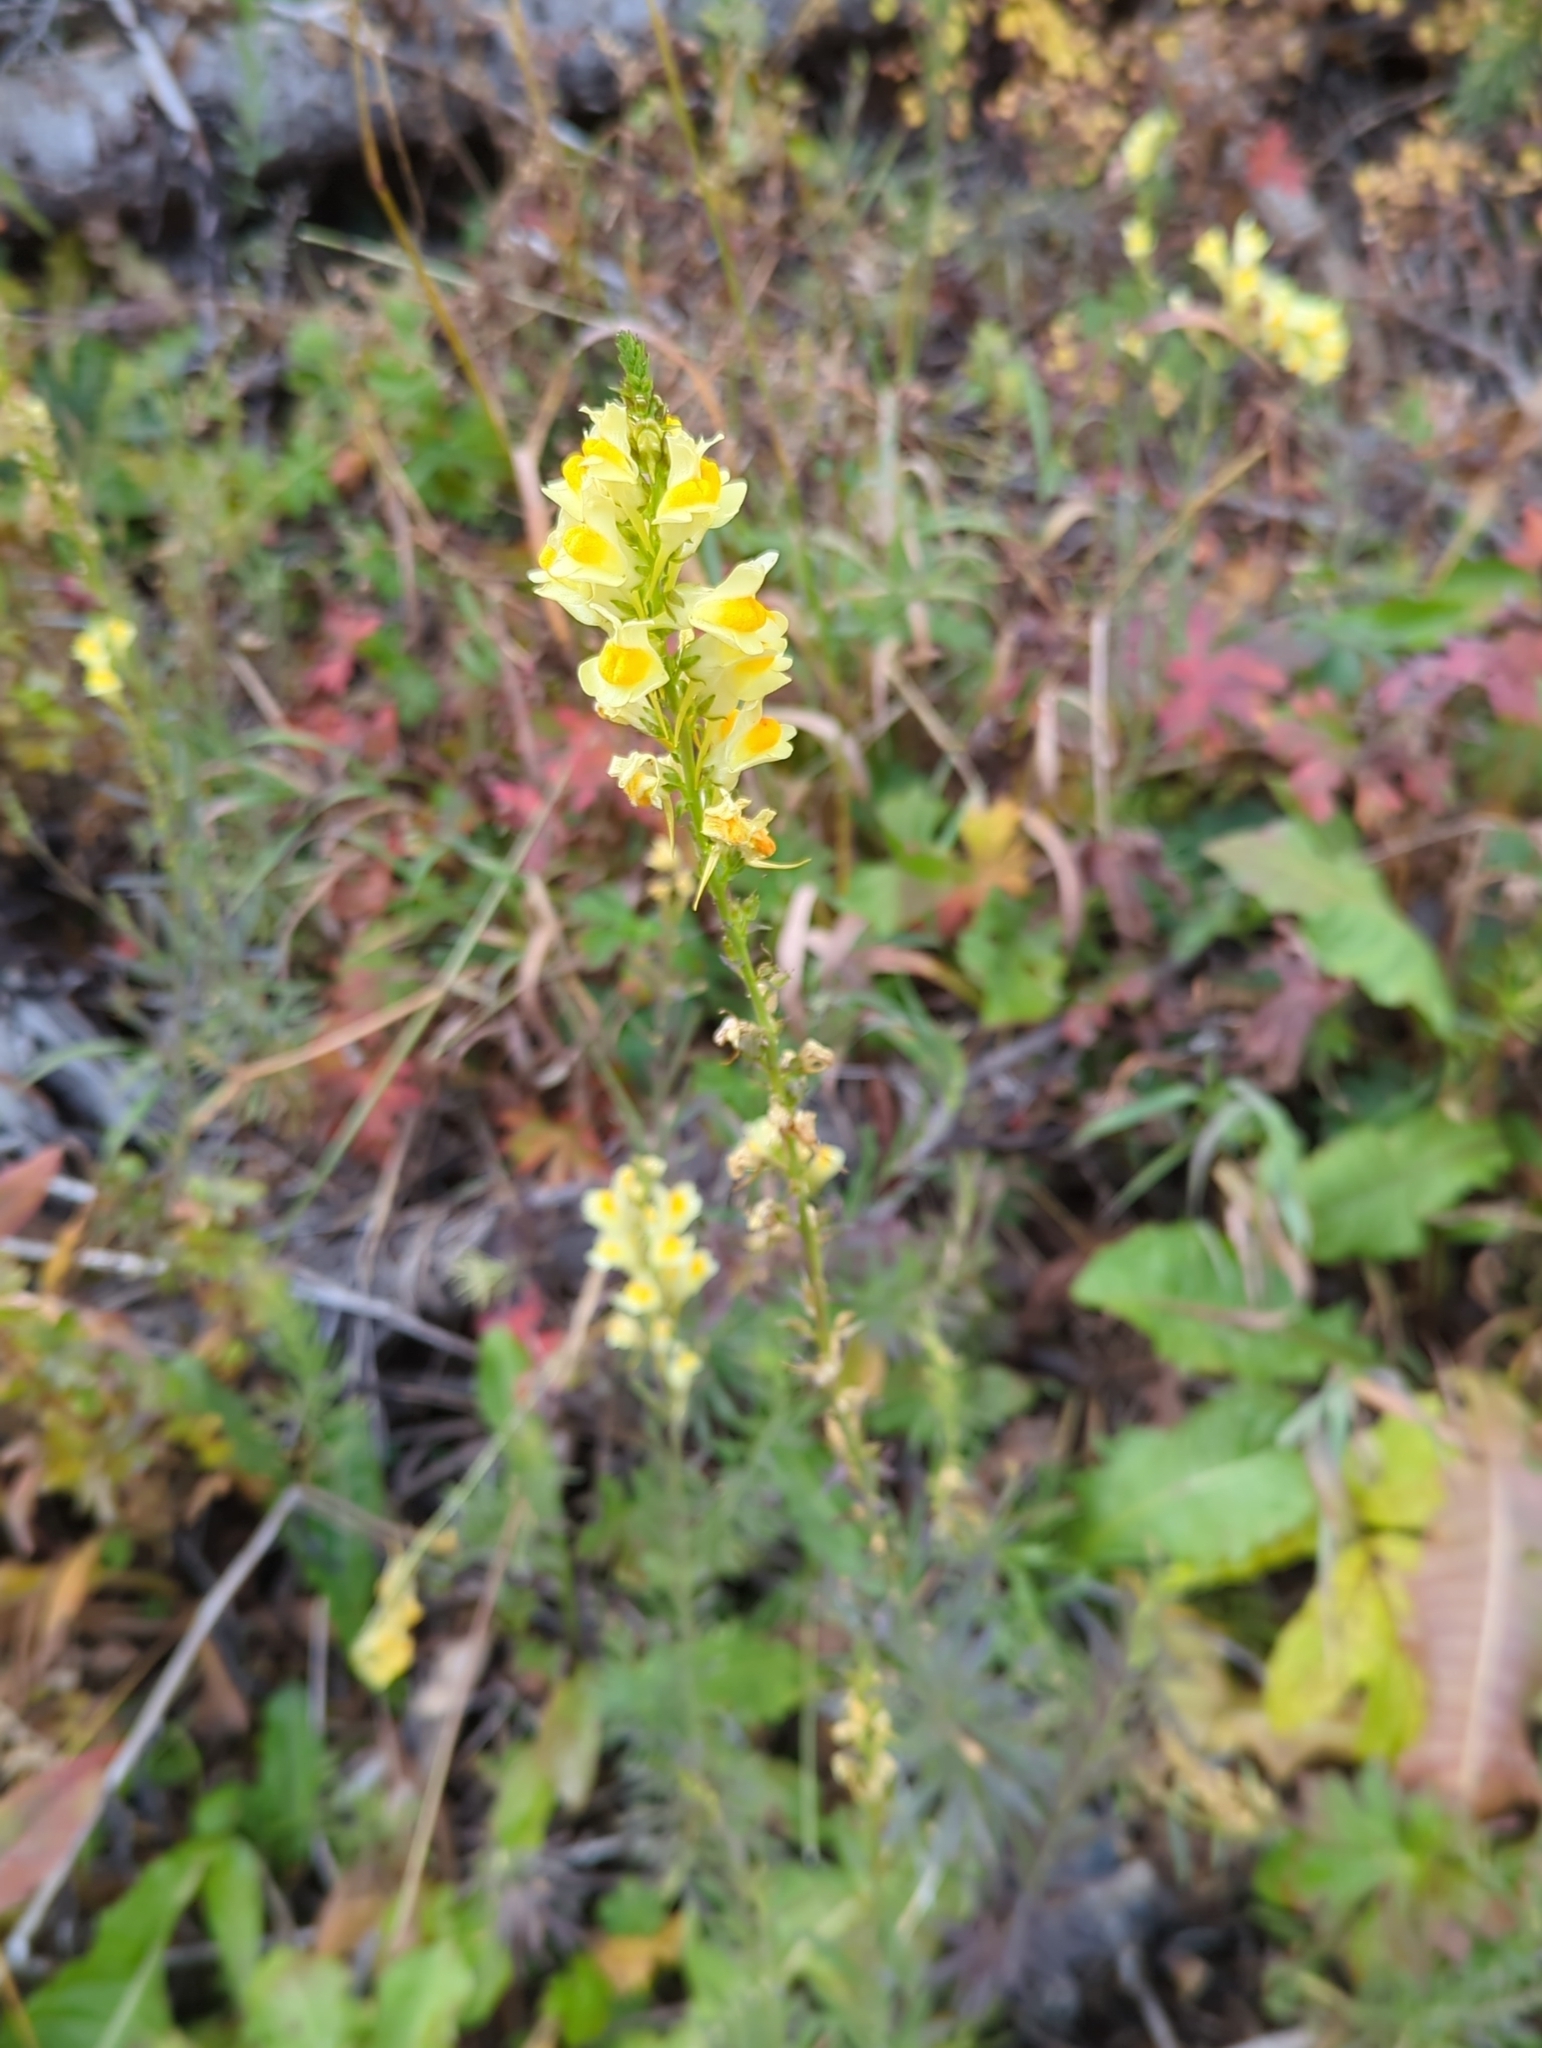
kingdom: Plantae
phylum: Tracheophyta
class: Magnoliopsida
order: Lamiales
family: Plantaginaceae
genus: Linaria
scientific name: Linaria vulgaris
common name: Butter and eggs
